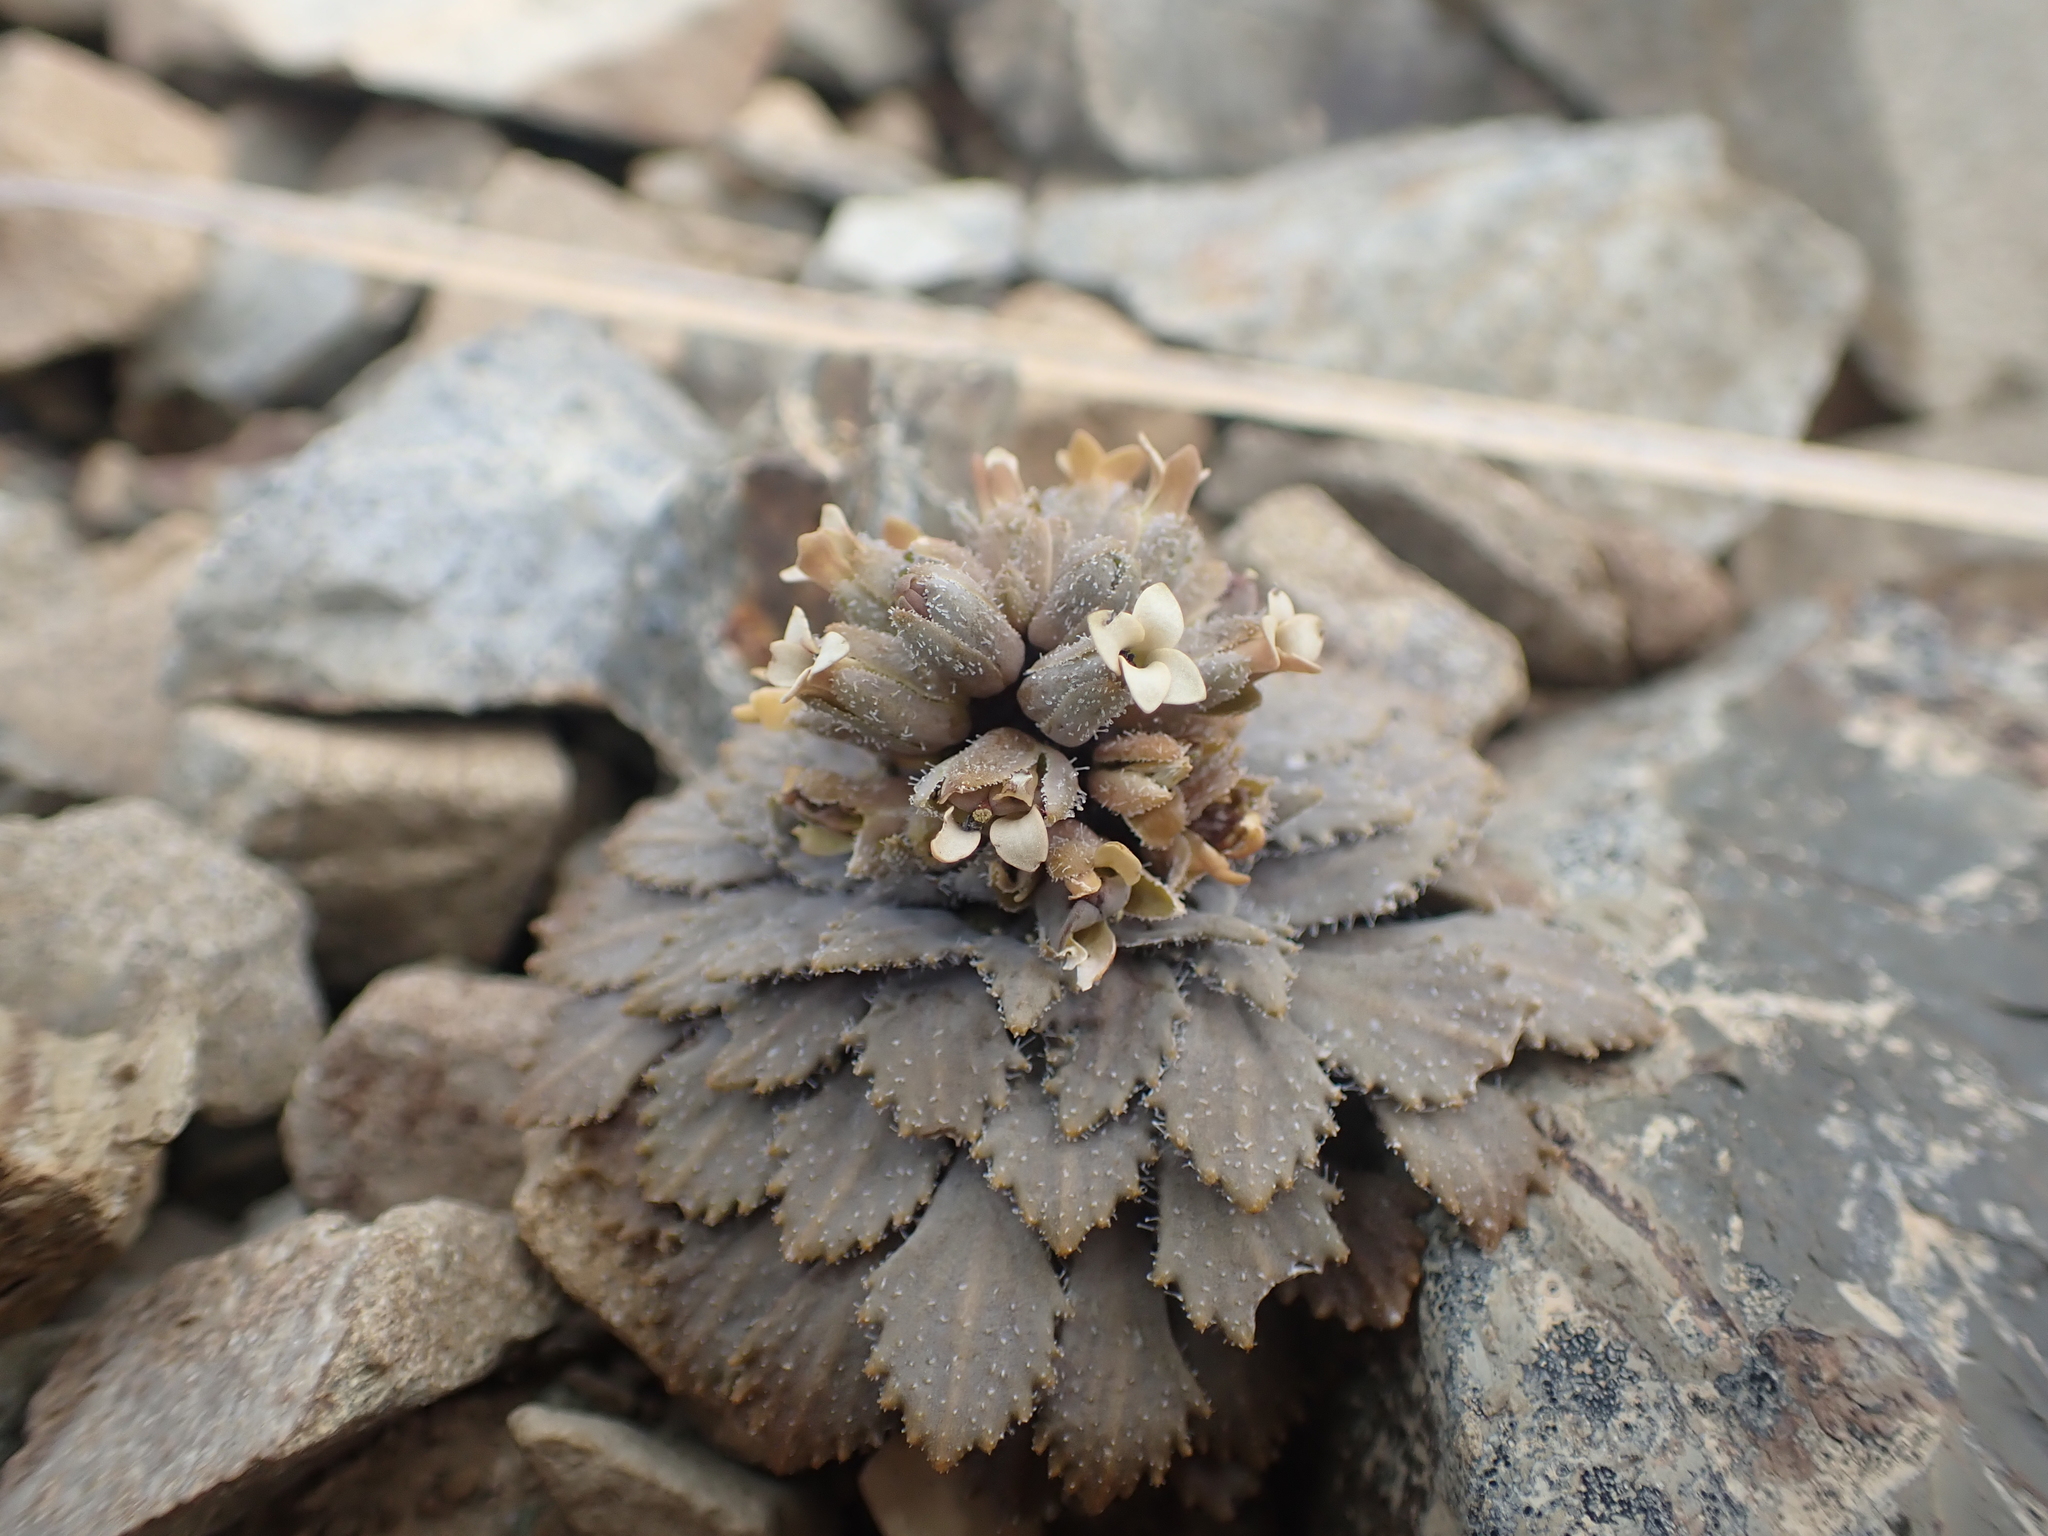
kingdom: Plantae
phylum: Tracheophyta
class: Magnoliopsida
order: Brassicales
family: Brassicaceae
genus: Notothlaspi
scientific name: Notothlaspi rosulatum
